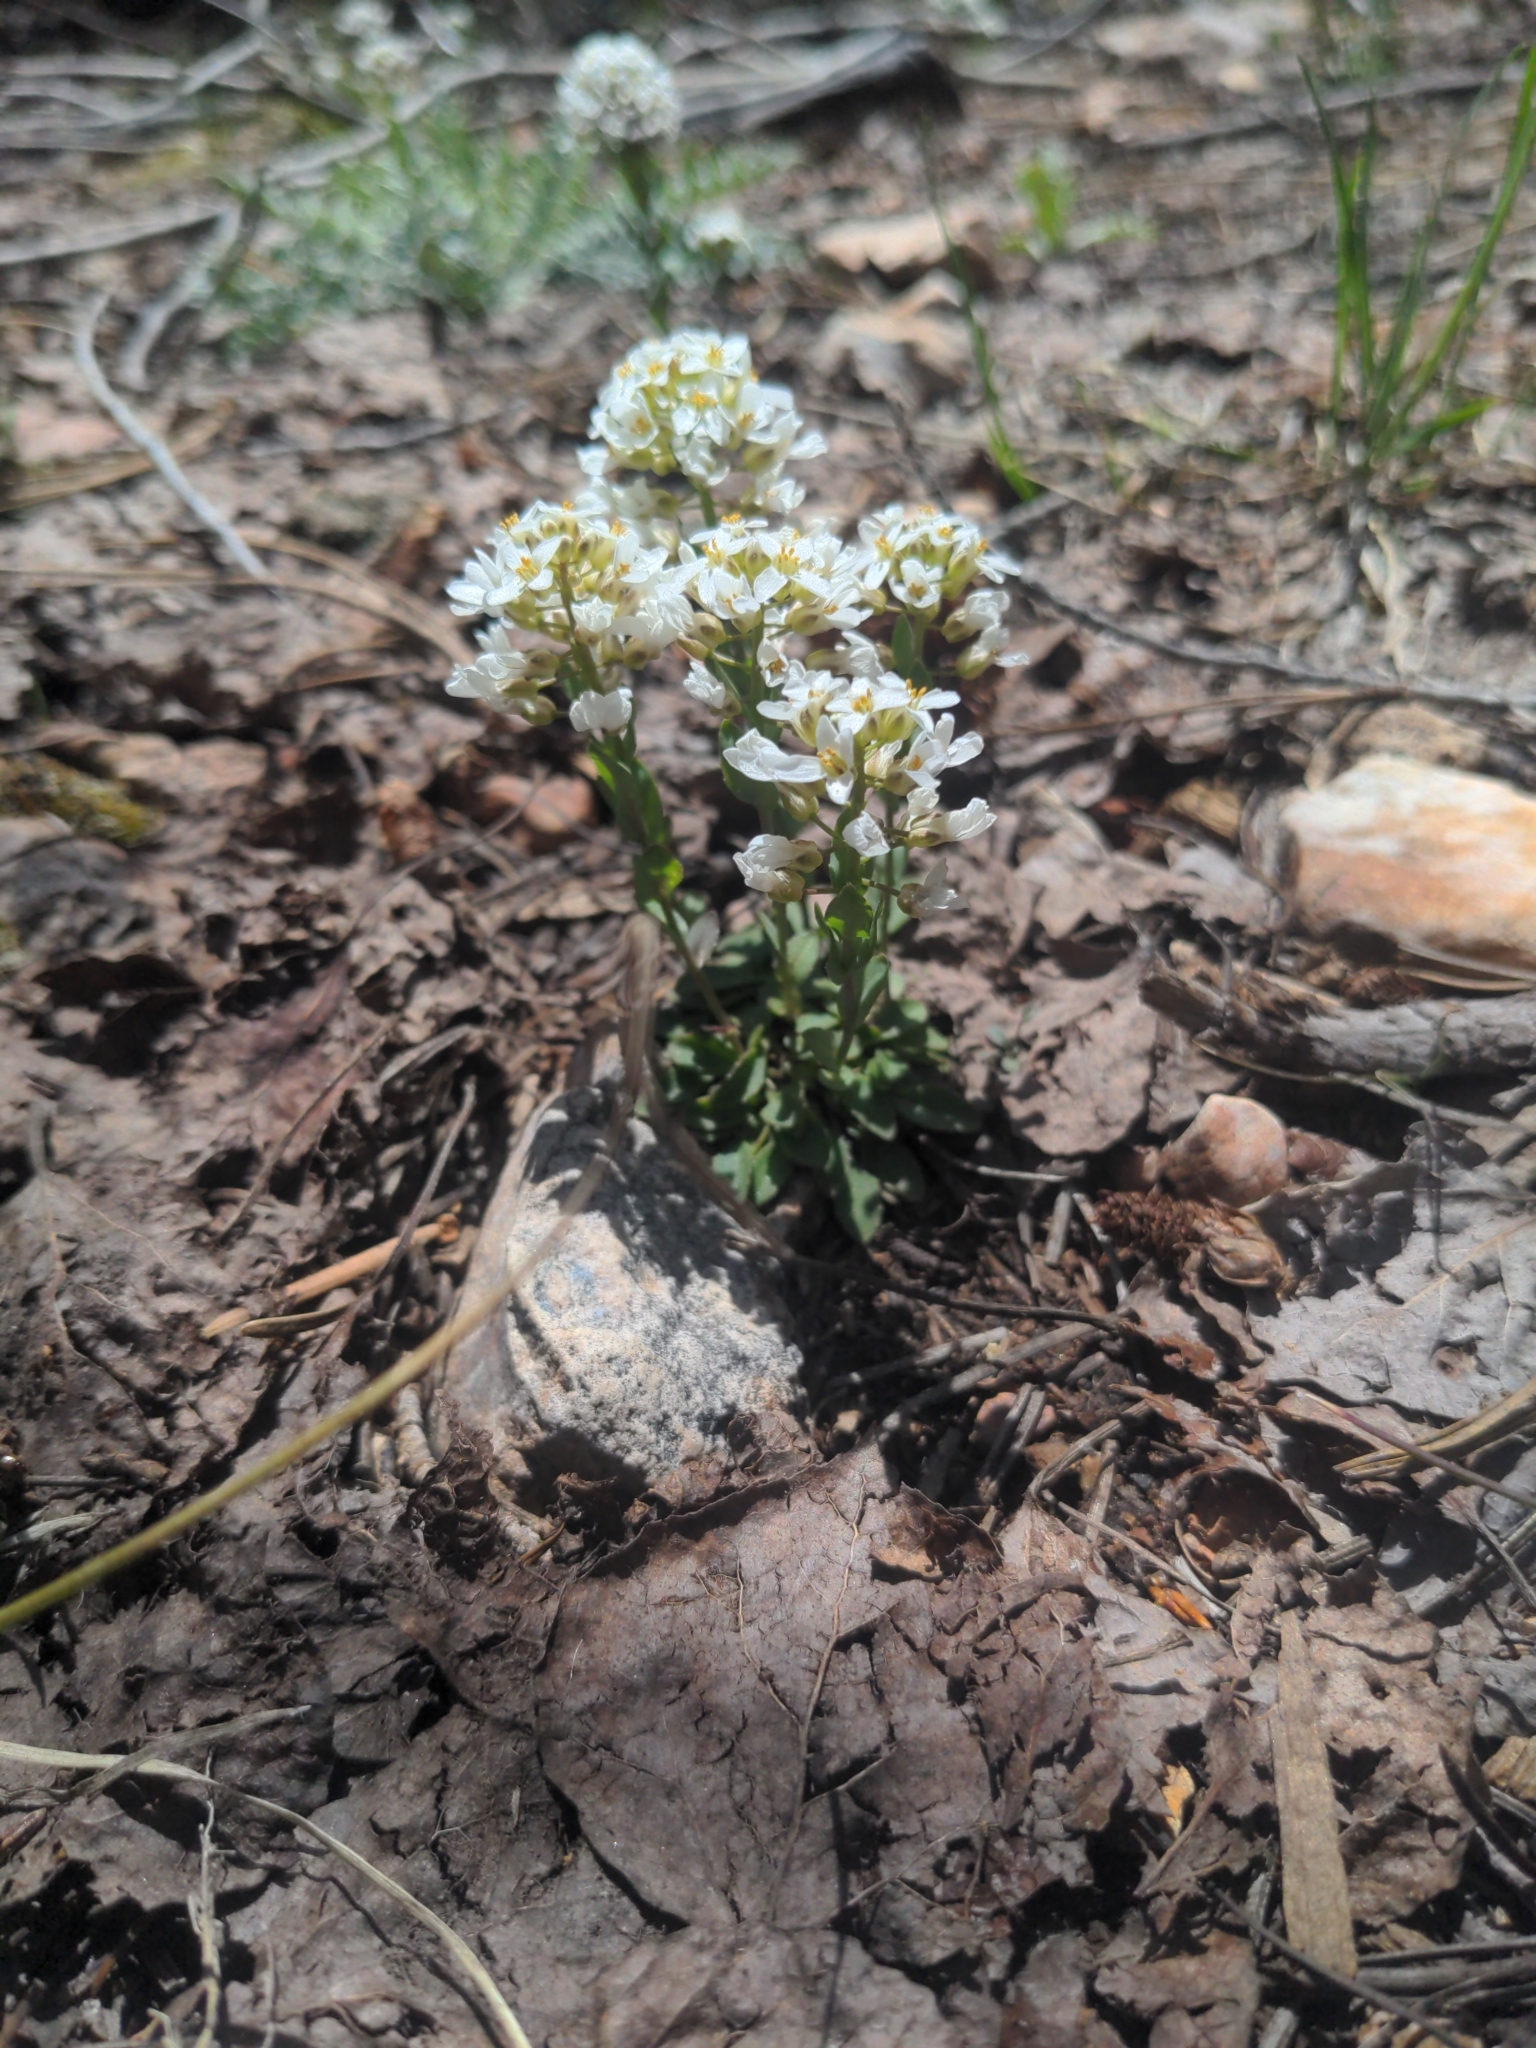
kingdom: Plantae
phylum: Tracheophyta
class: Magnoliopsida
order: Brassicales
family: Brassicaceae
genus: Noccaea
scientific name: Noccaea fendleri
